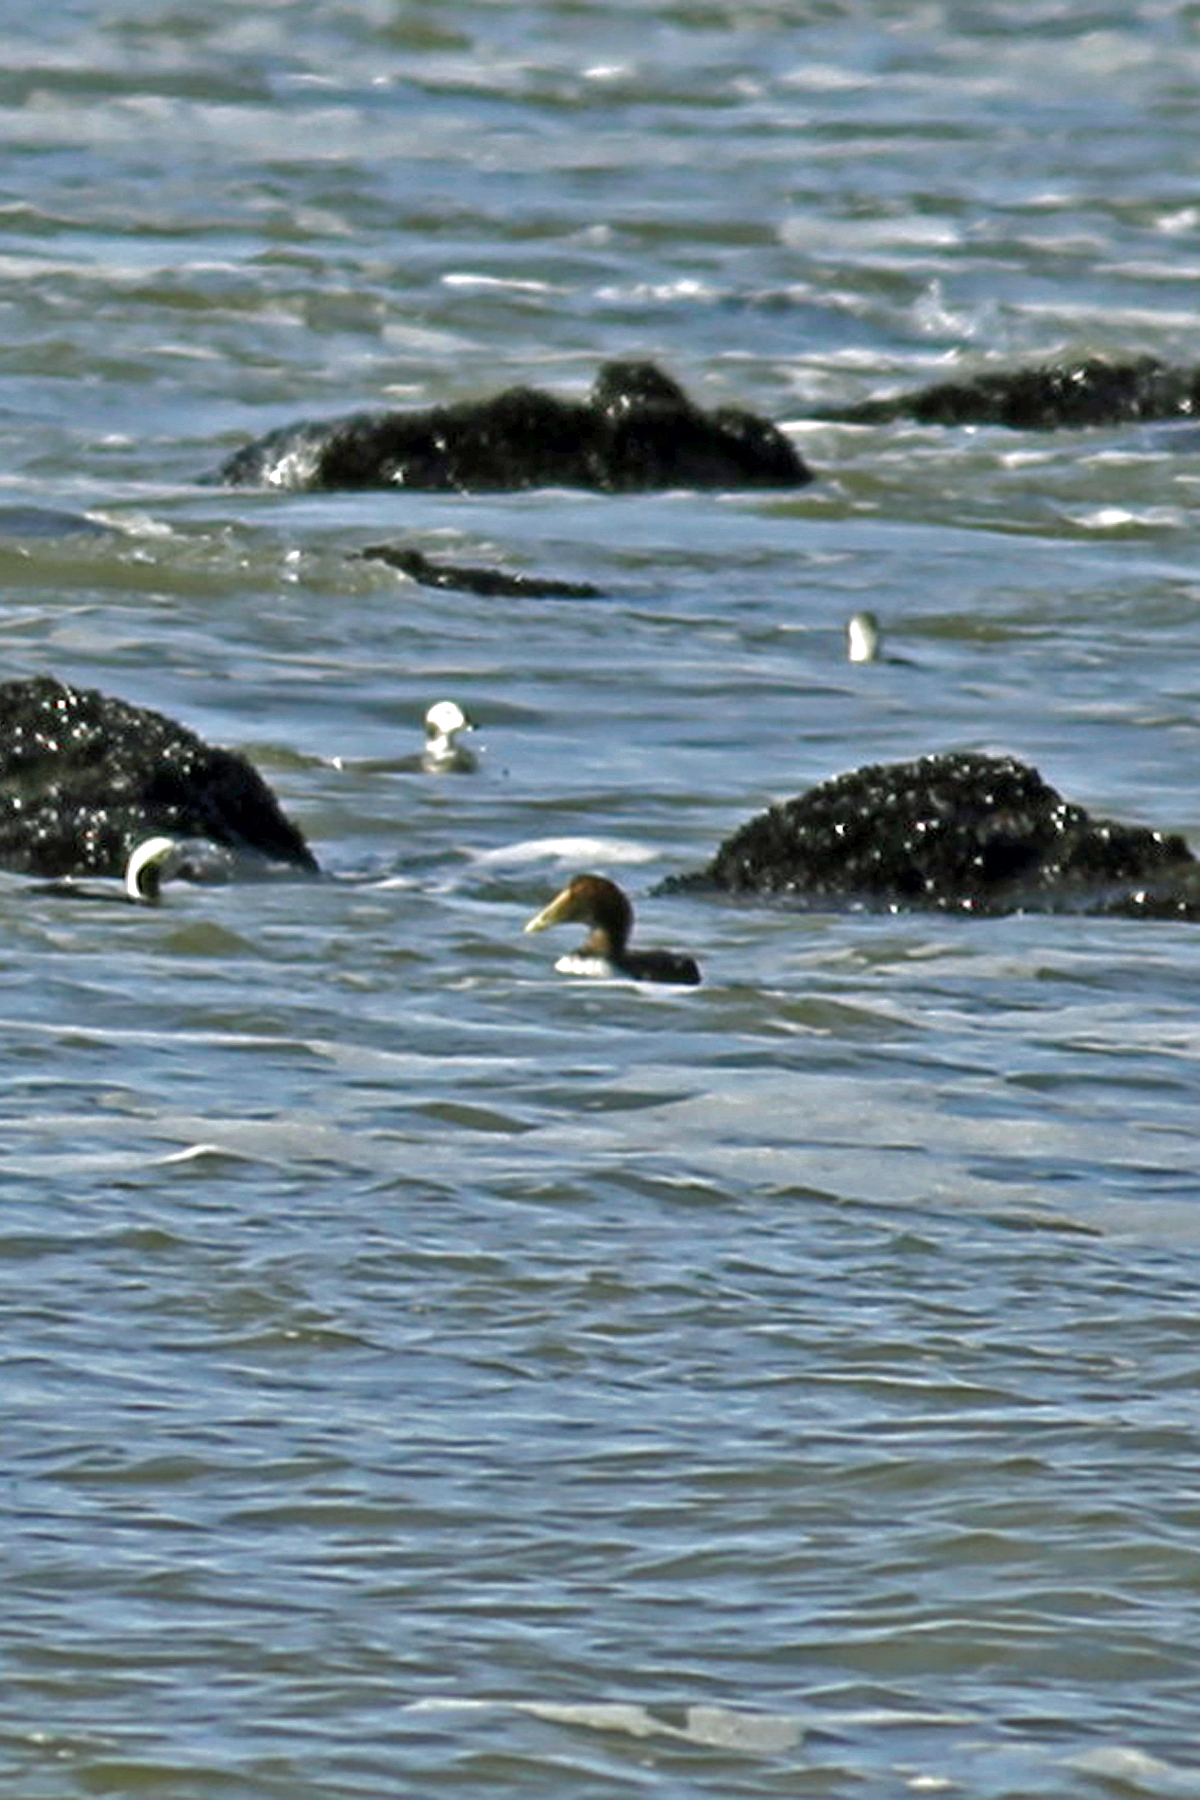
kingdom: Animalia
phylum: Chordata
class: Aves
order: Anseriformes
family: Anatidae
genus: Somateria
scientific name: Somateria mollissima
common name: Common eider
